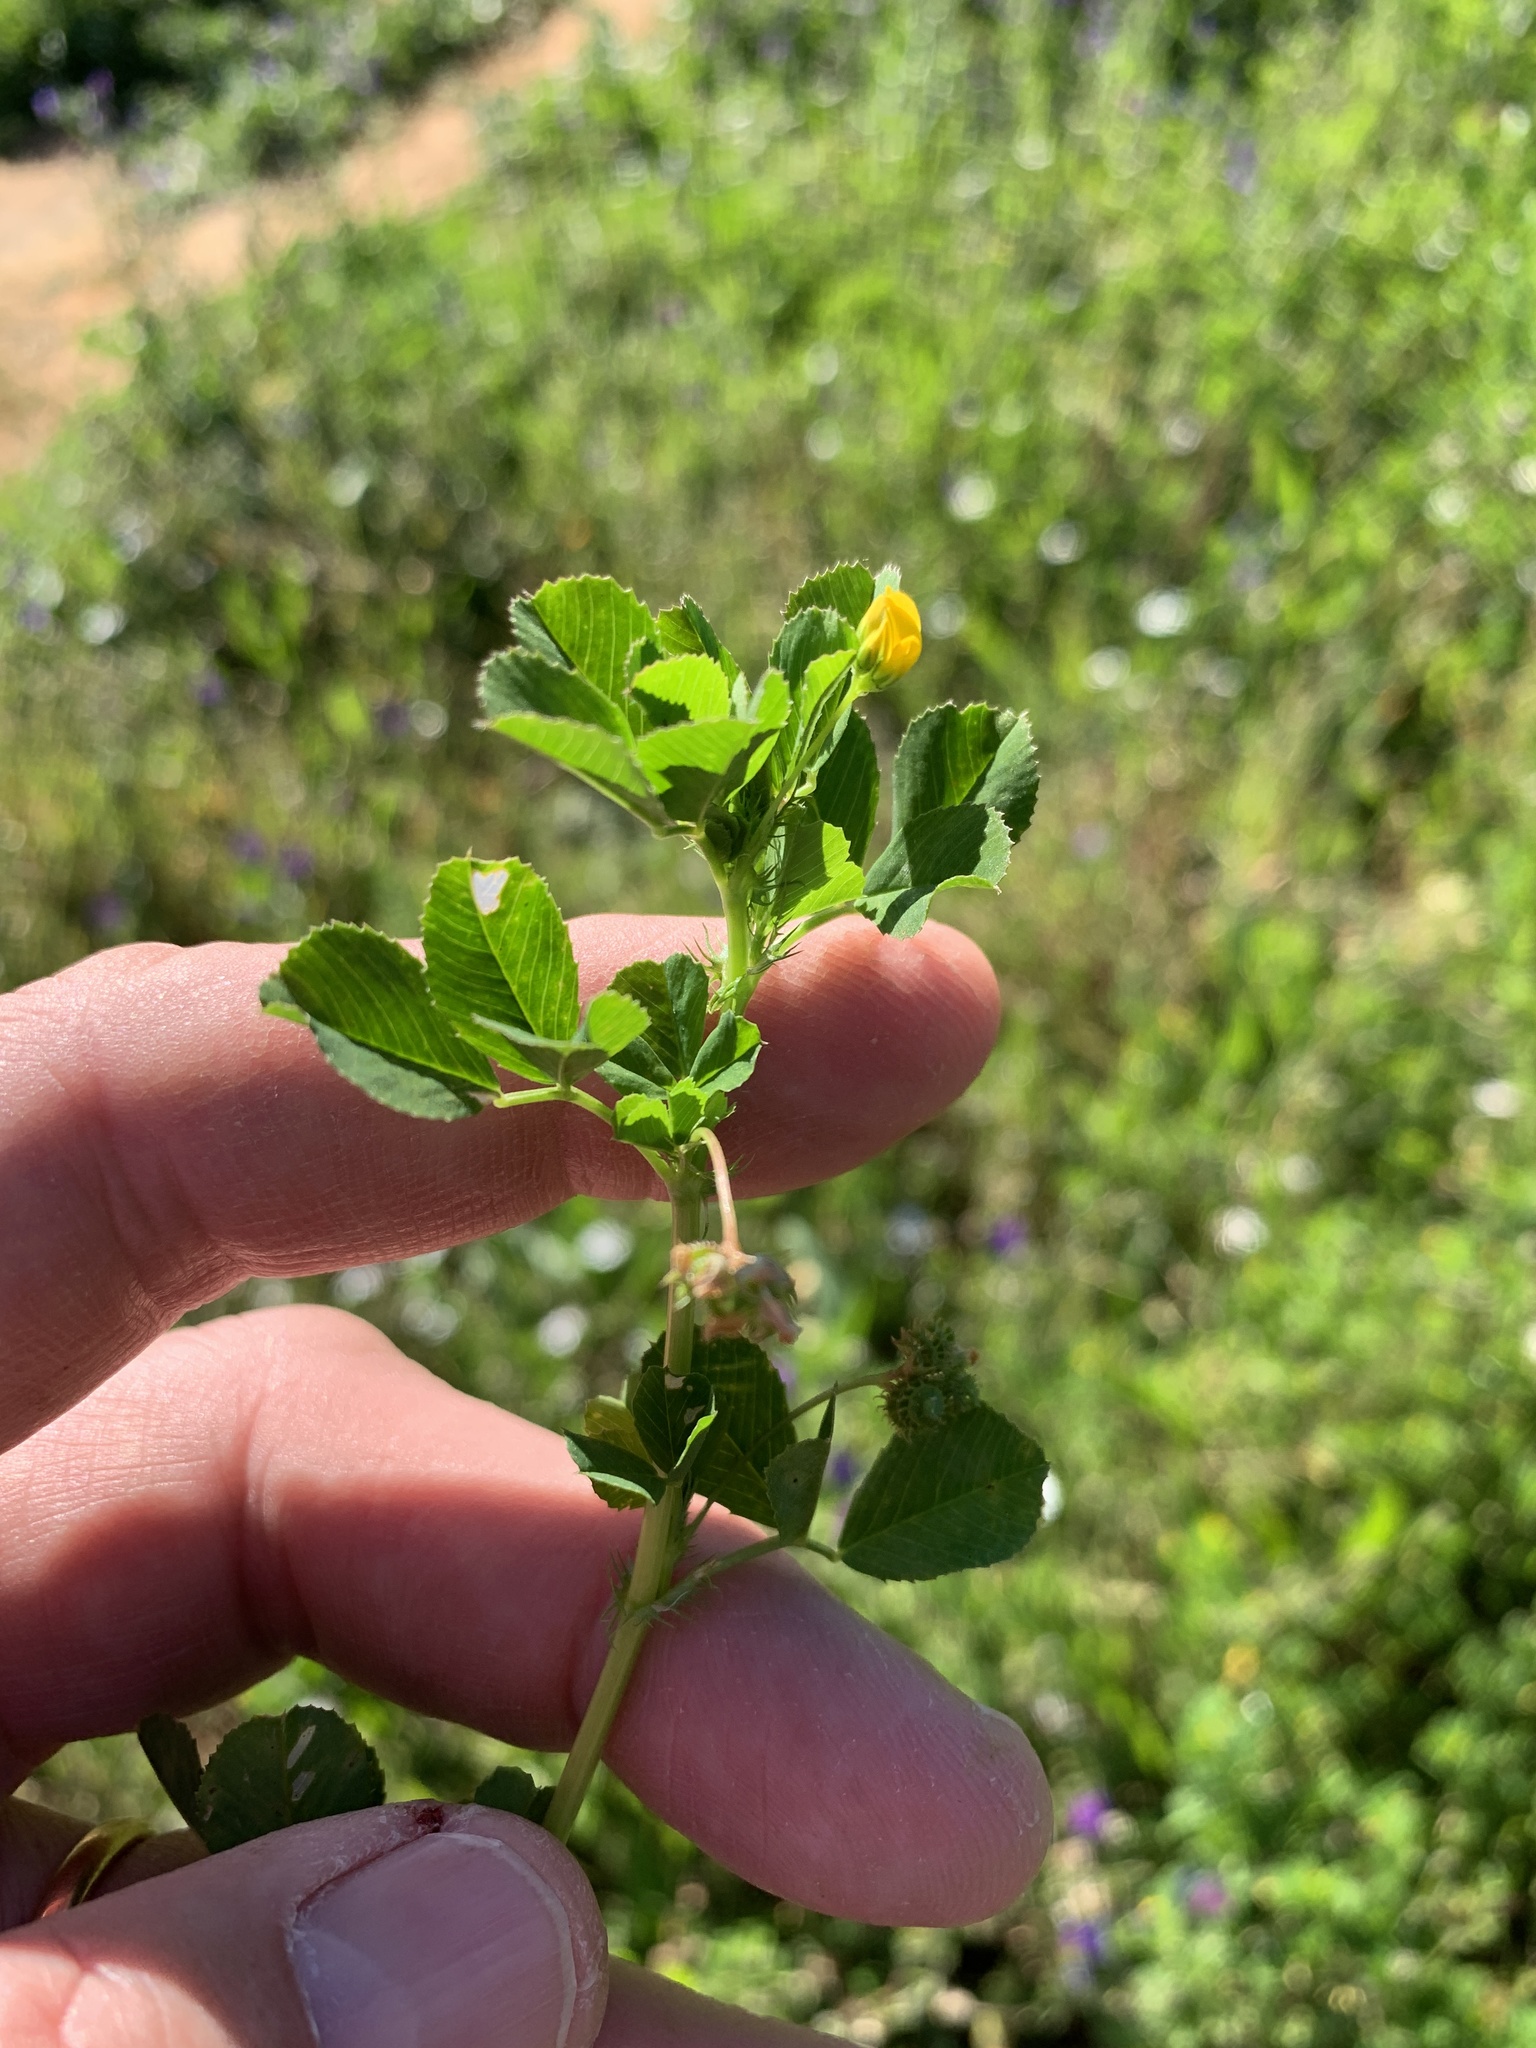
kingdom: Plantae
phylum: Tracheophyta
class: Magnoliopsida
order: Fabales
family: Fabaceae
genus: Medicago
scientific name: Medicago polymorpha
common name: Burclover
